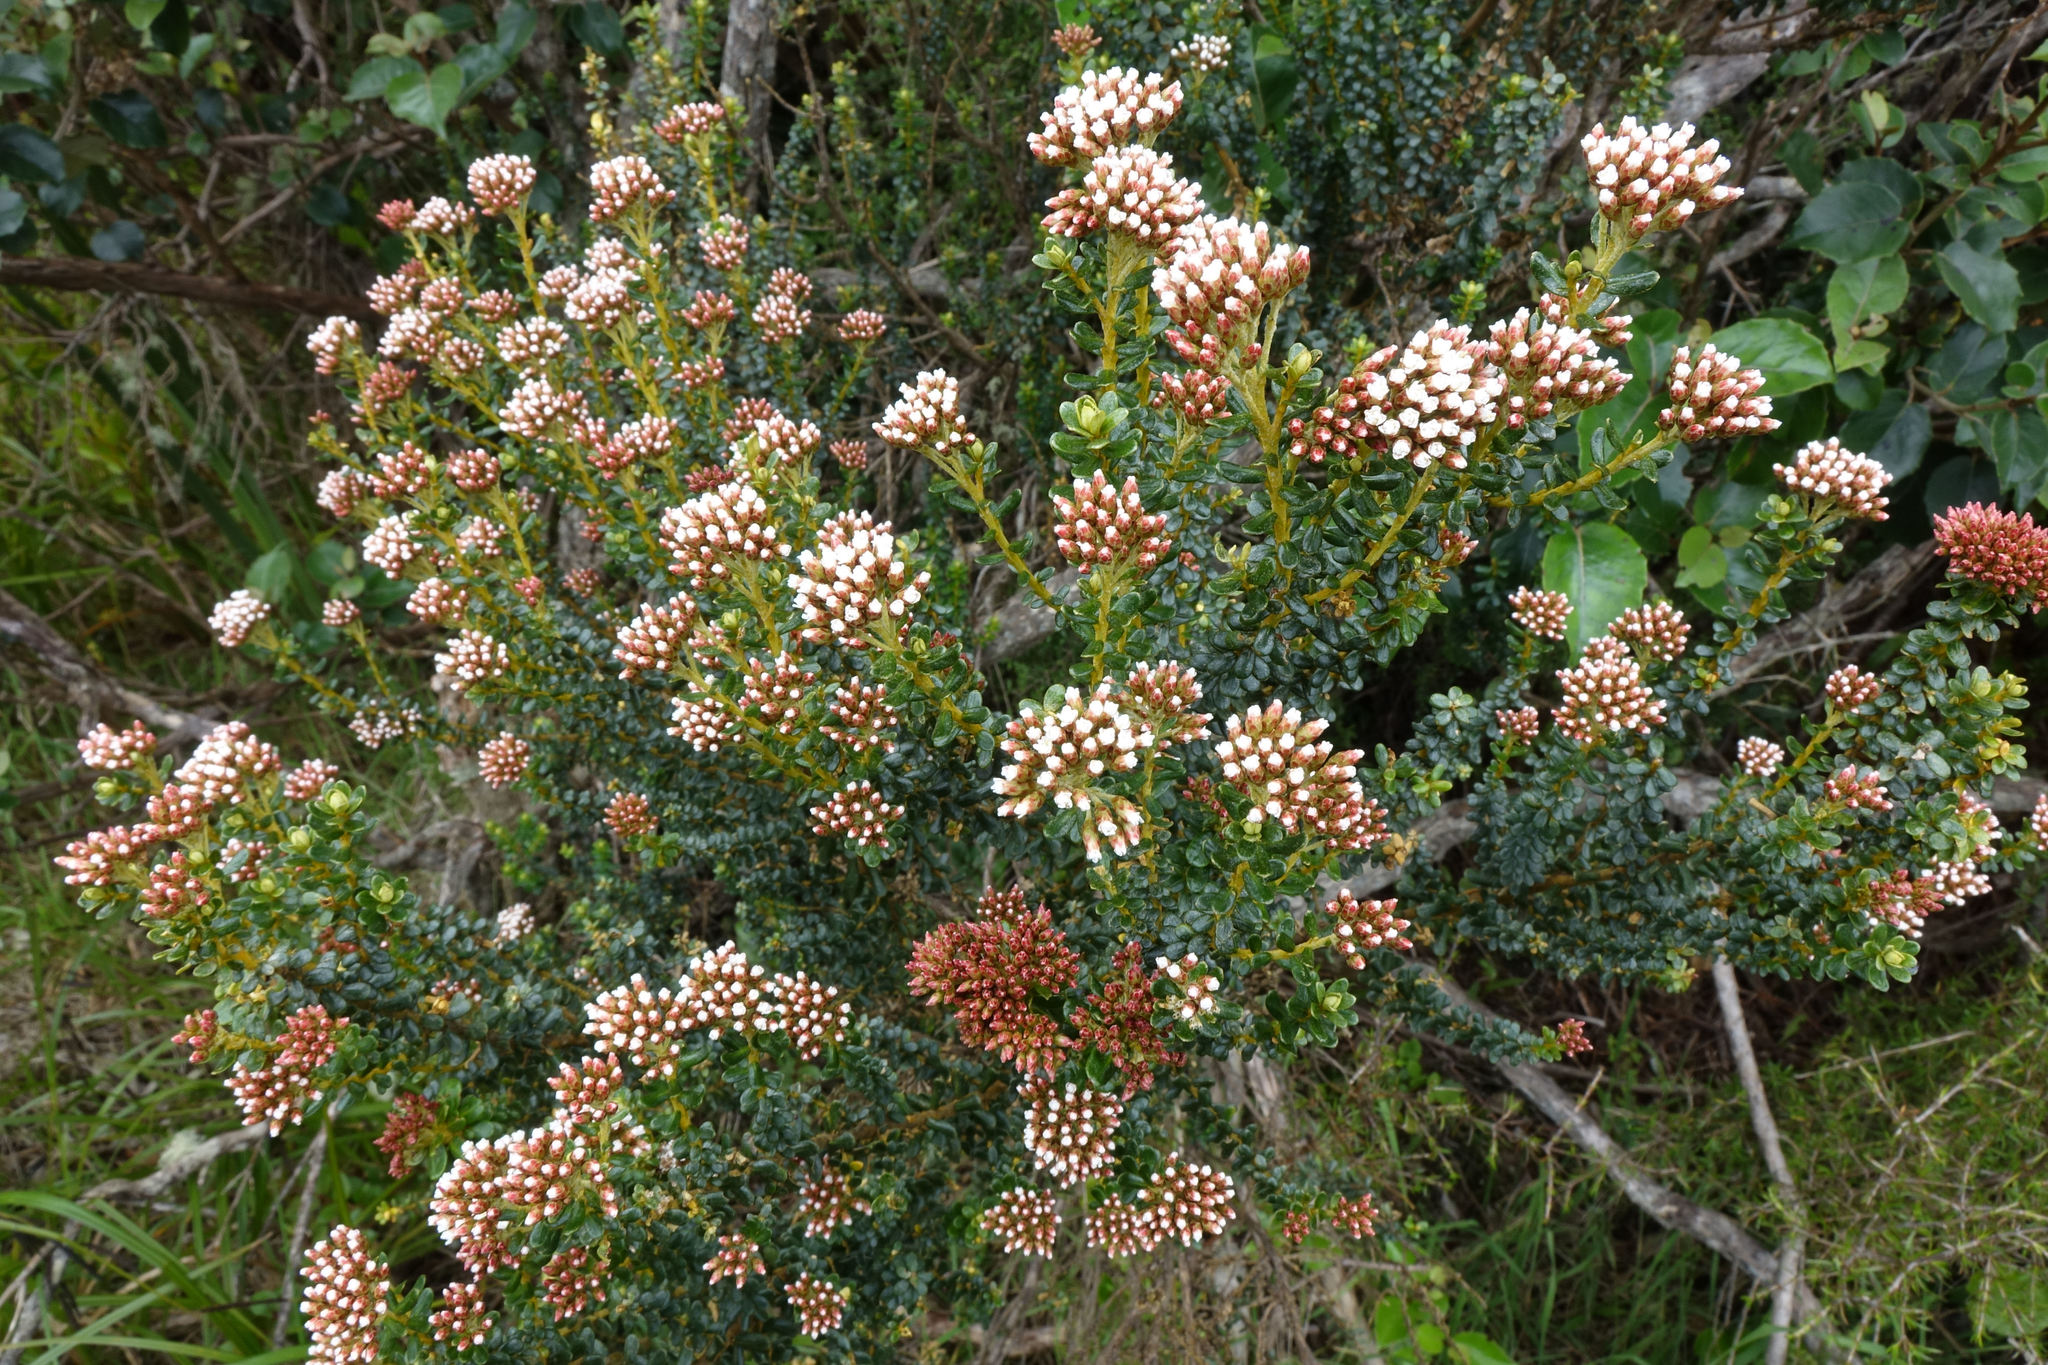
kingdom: Plantae
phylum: Tracheophyta
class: Magnoliopsida
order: Asterales
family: Asteraceae
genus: Ozothamnus
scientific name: Ozothamnus leptophyllus
